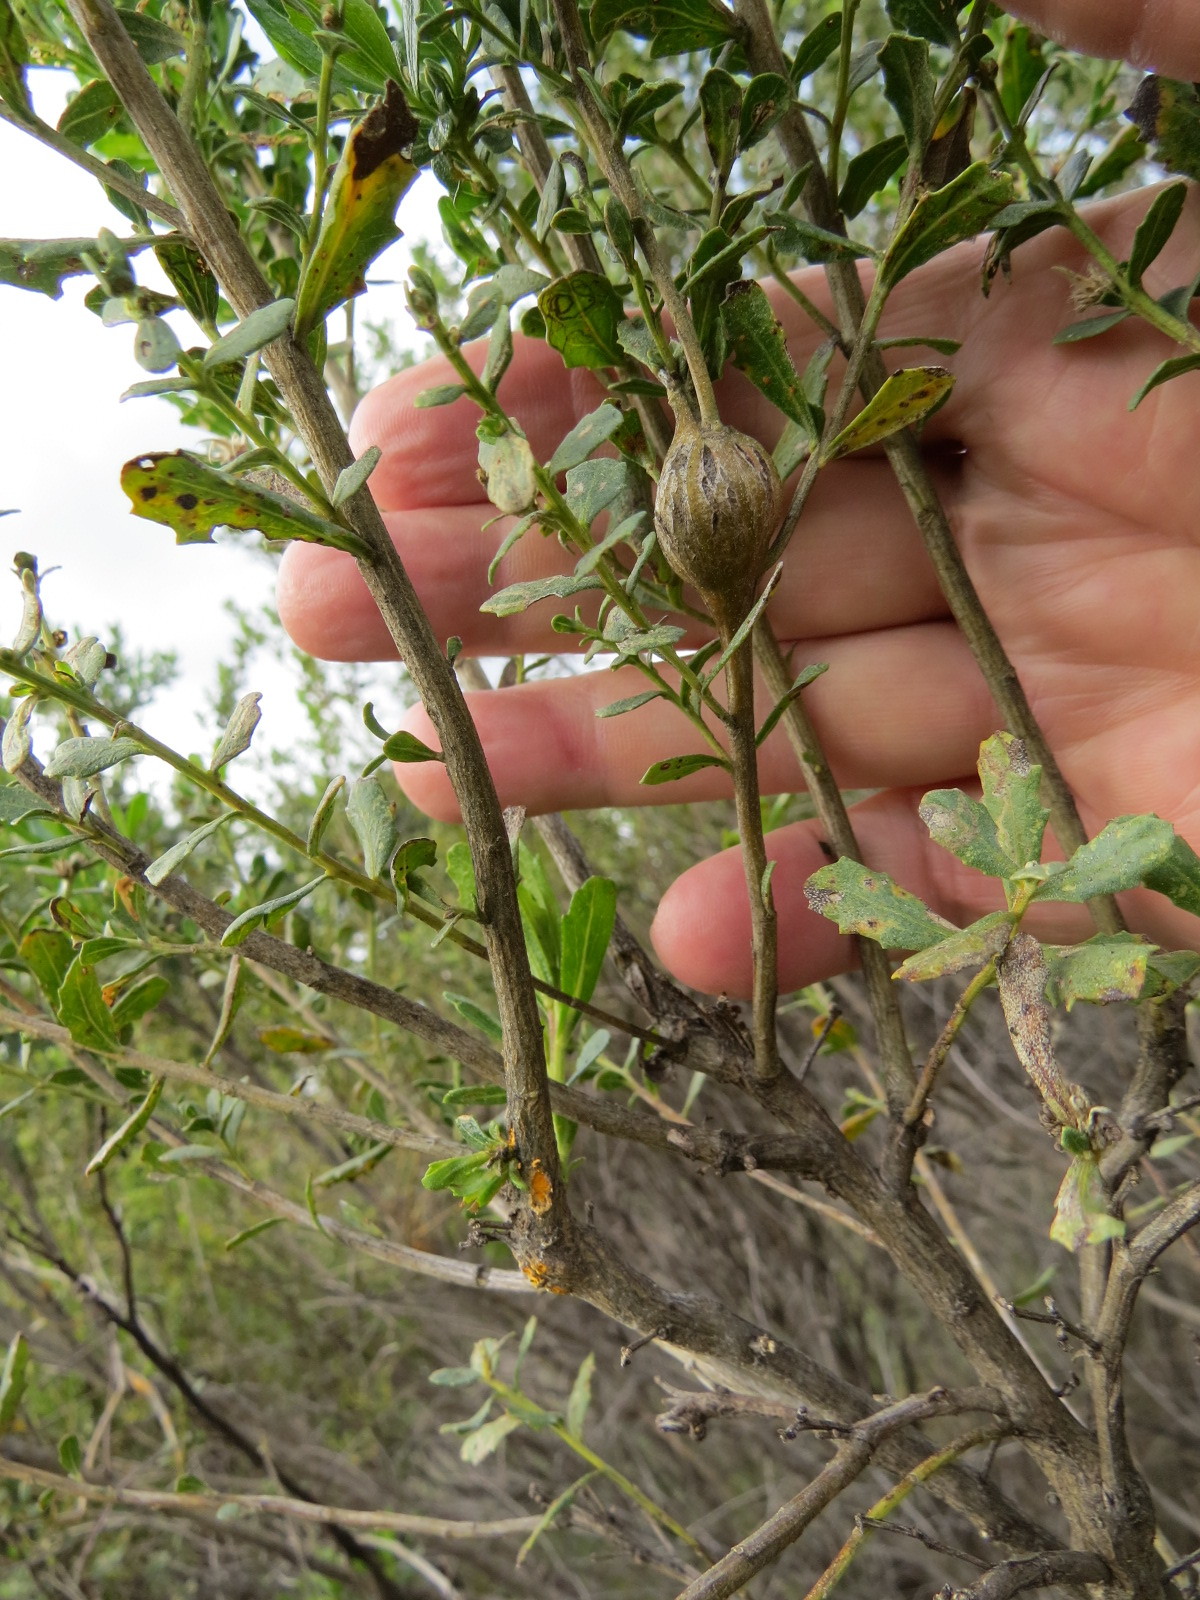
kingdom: Animalia
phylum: Arthropoda
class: Insecta
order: Lepidoptera
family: Gelechiidae
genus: Gnorimoschema
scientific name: Gnorimoschema baccharisella
